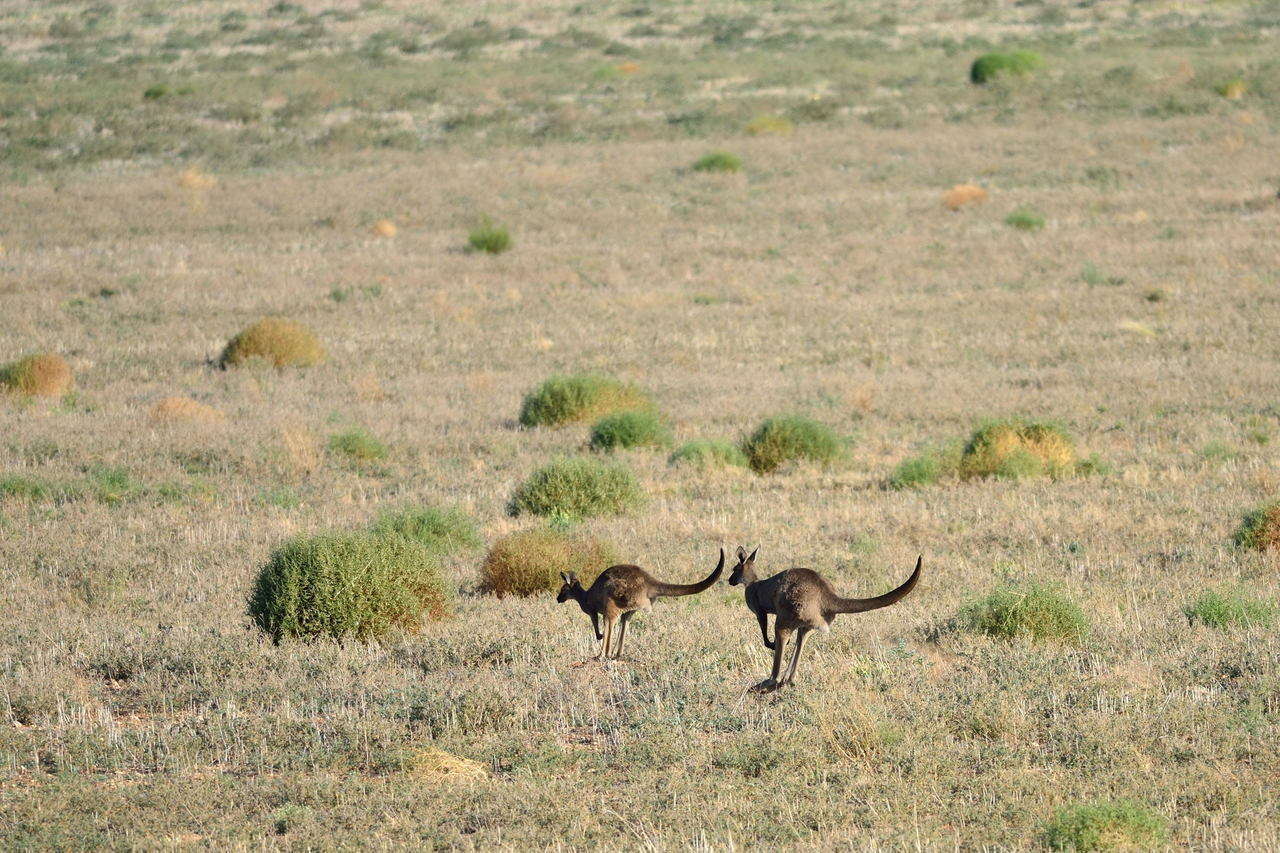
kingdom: Animalia
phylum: Chordata
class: Mammalia
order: Diprotodontia
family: Macropodidae
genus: Macropus
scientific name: Macropus fuliginosus
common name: Western grey kangaroo
